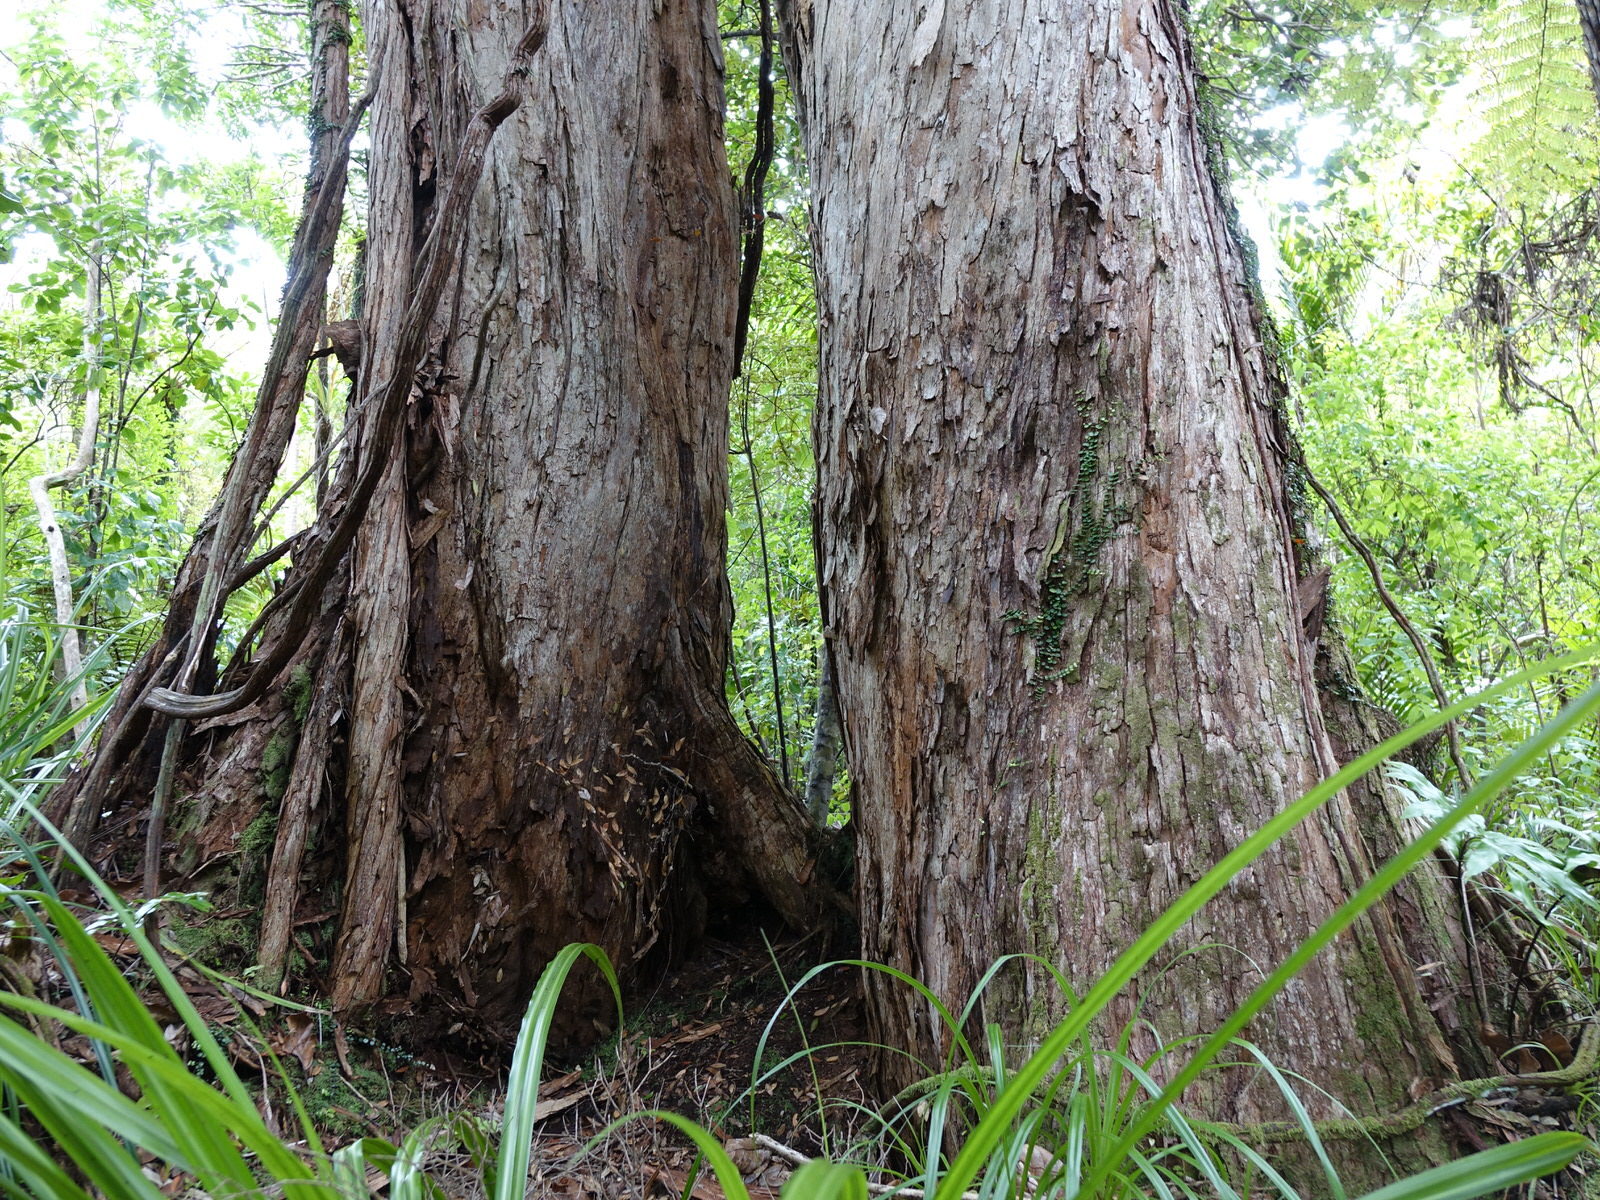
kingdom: Plantae
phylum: Tracheophyta
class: Magnoliopsida
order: Myrtales
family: Myrtaceae
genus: Metrosideros
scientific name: Metrosideros robusta
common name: Northern rata
